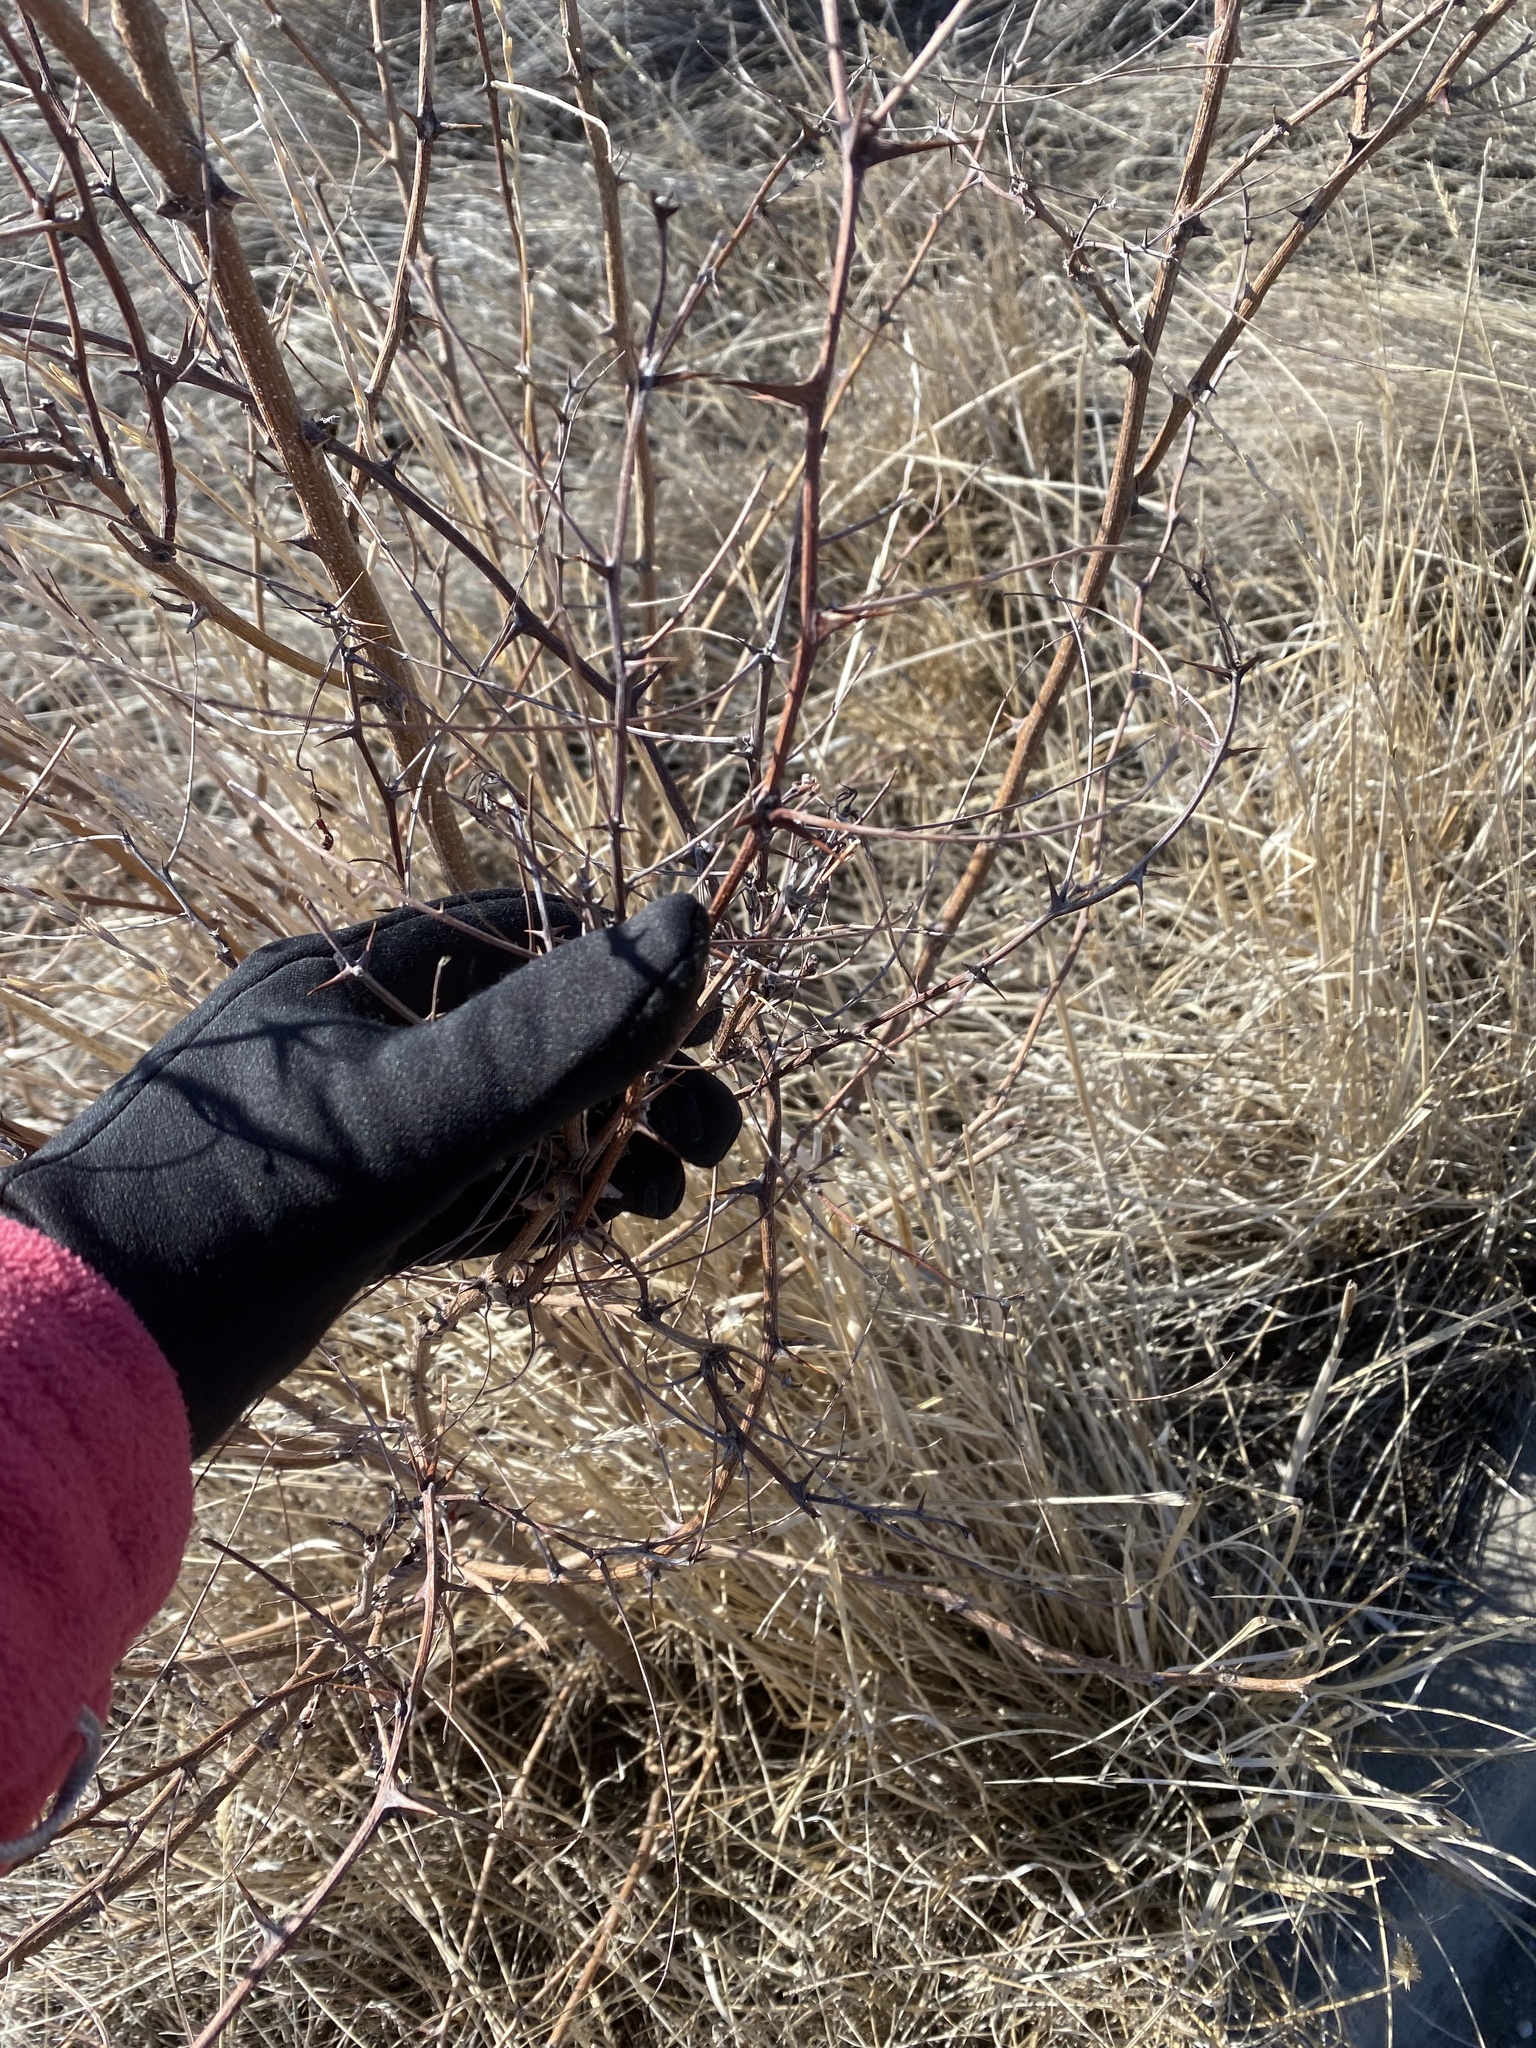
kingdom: Plantae
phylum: Tracheophyta
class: Magnoliopsida
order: Fabales
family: Fabaceae
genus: Robinia
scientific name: Robinia neomexicana
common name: New mexico locust
